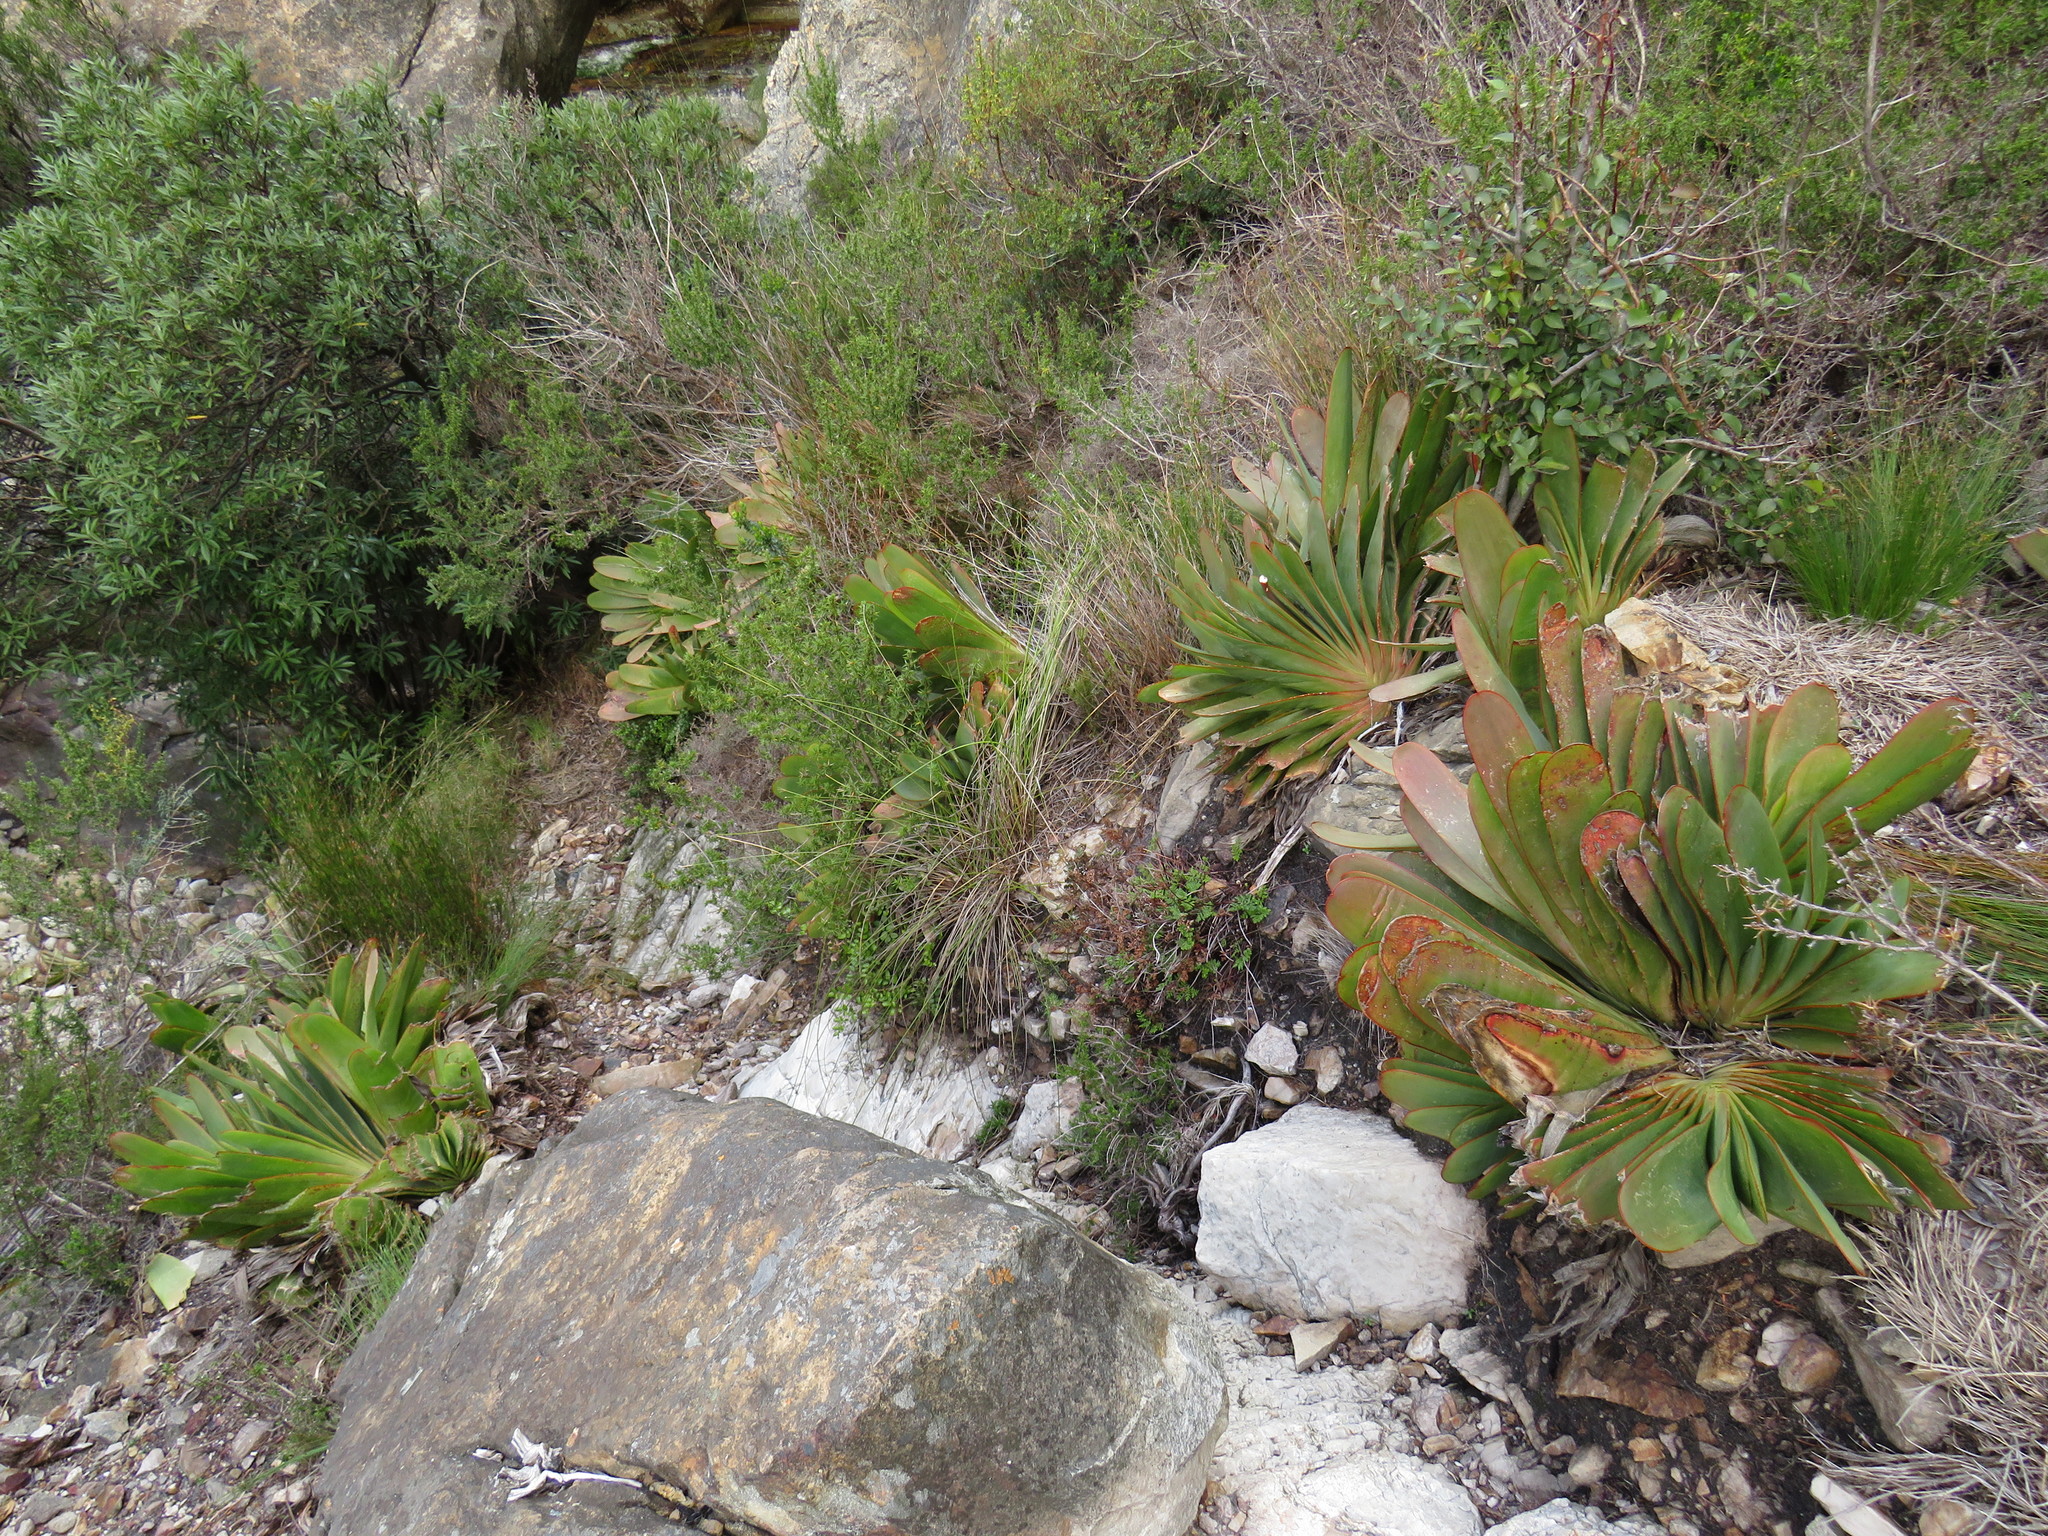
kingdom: Plantae
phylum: Tracheophyta
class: Liliopsida
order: Asparagales
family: Asphodelaceae
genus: Kumara
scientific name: Kumara haemanthifolia
